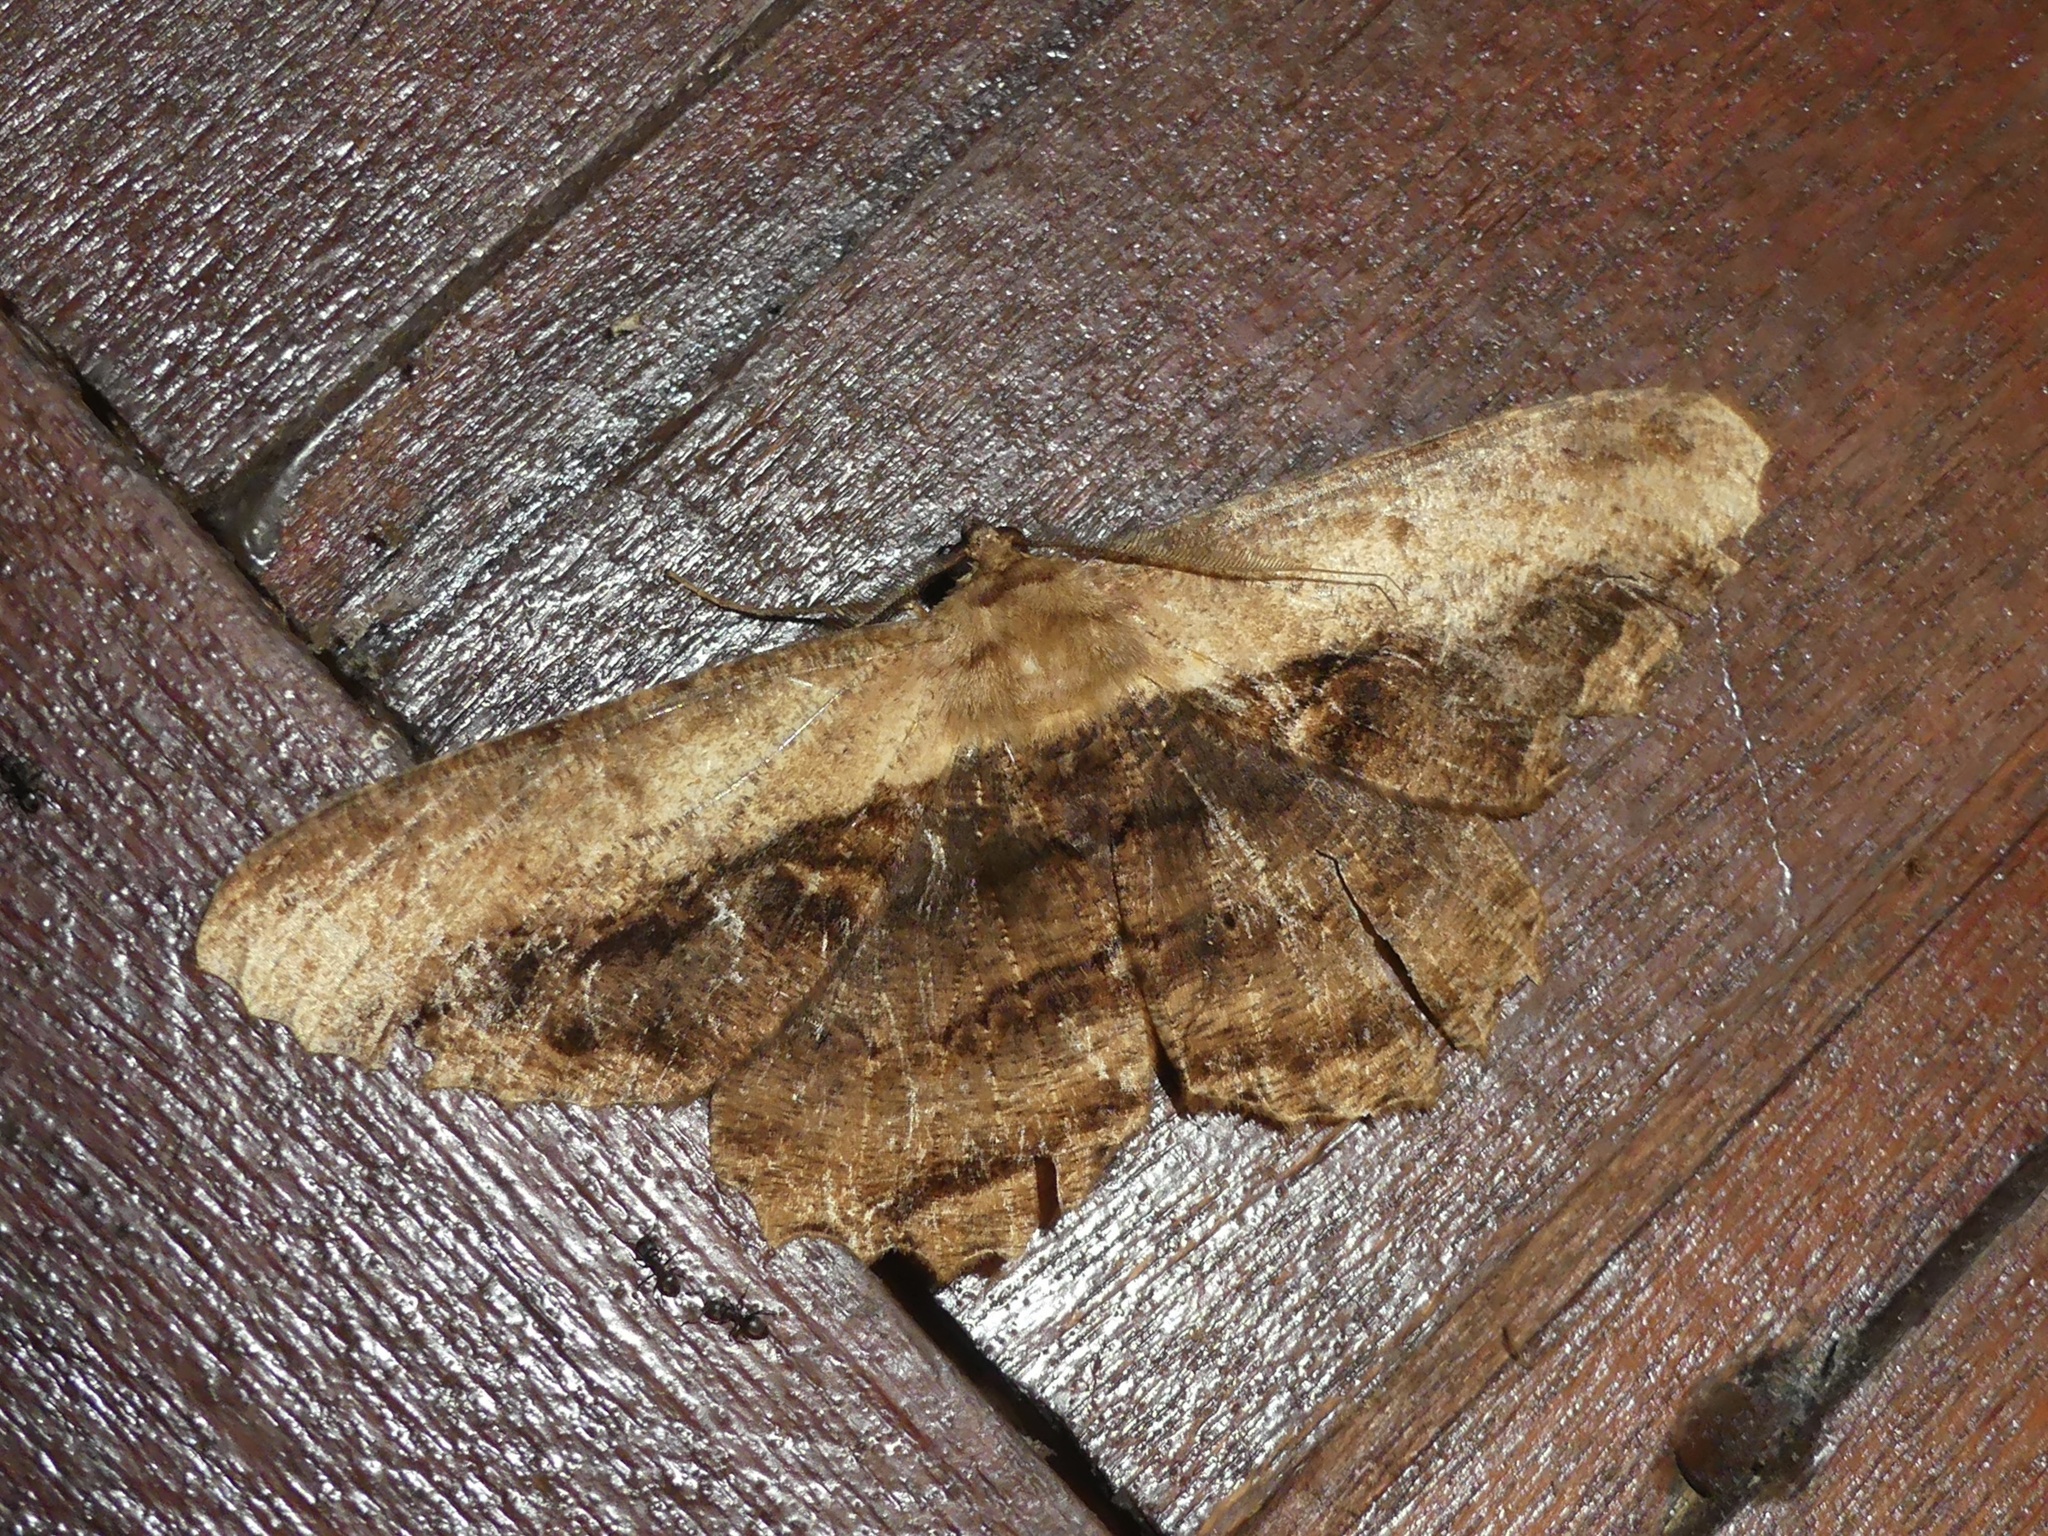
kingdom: Animalia
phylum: Arthropoda
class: Insecta
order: Lepidoptera
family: Geometridae
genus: Chorodna
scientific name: Chorodna pseudobolima
